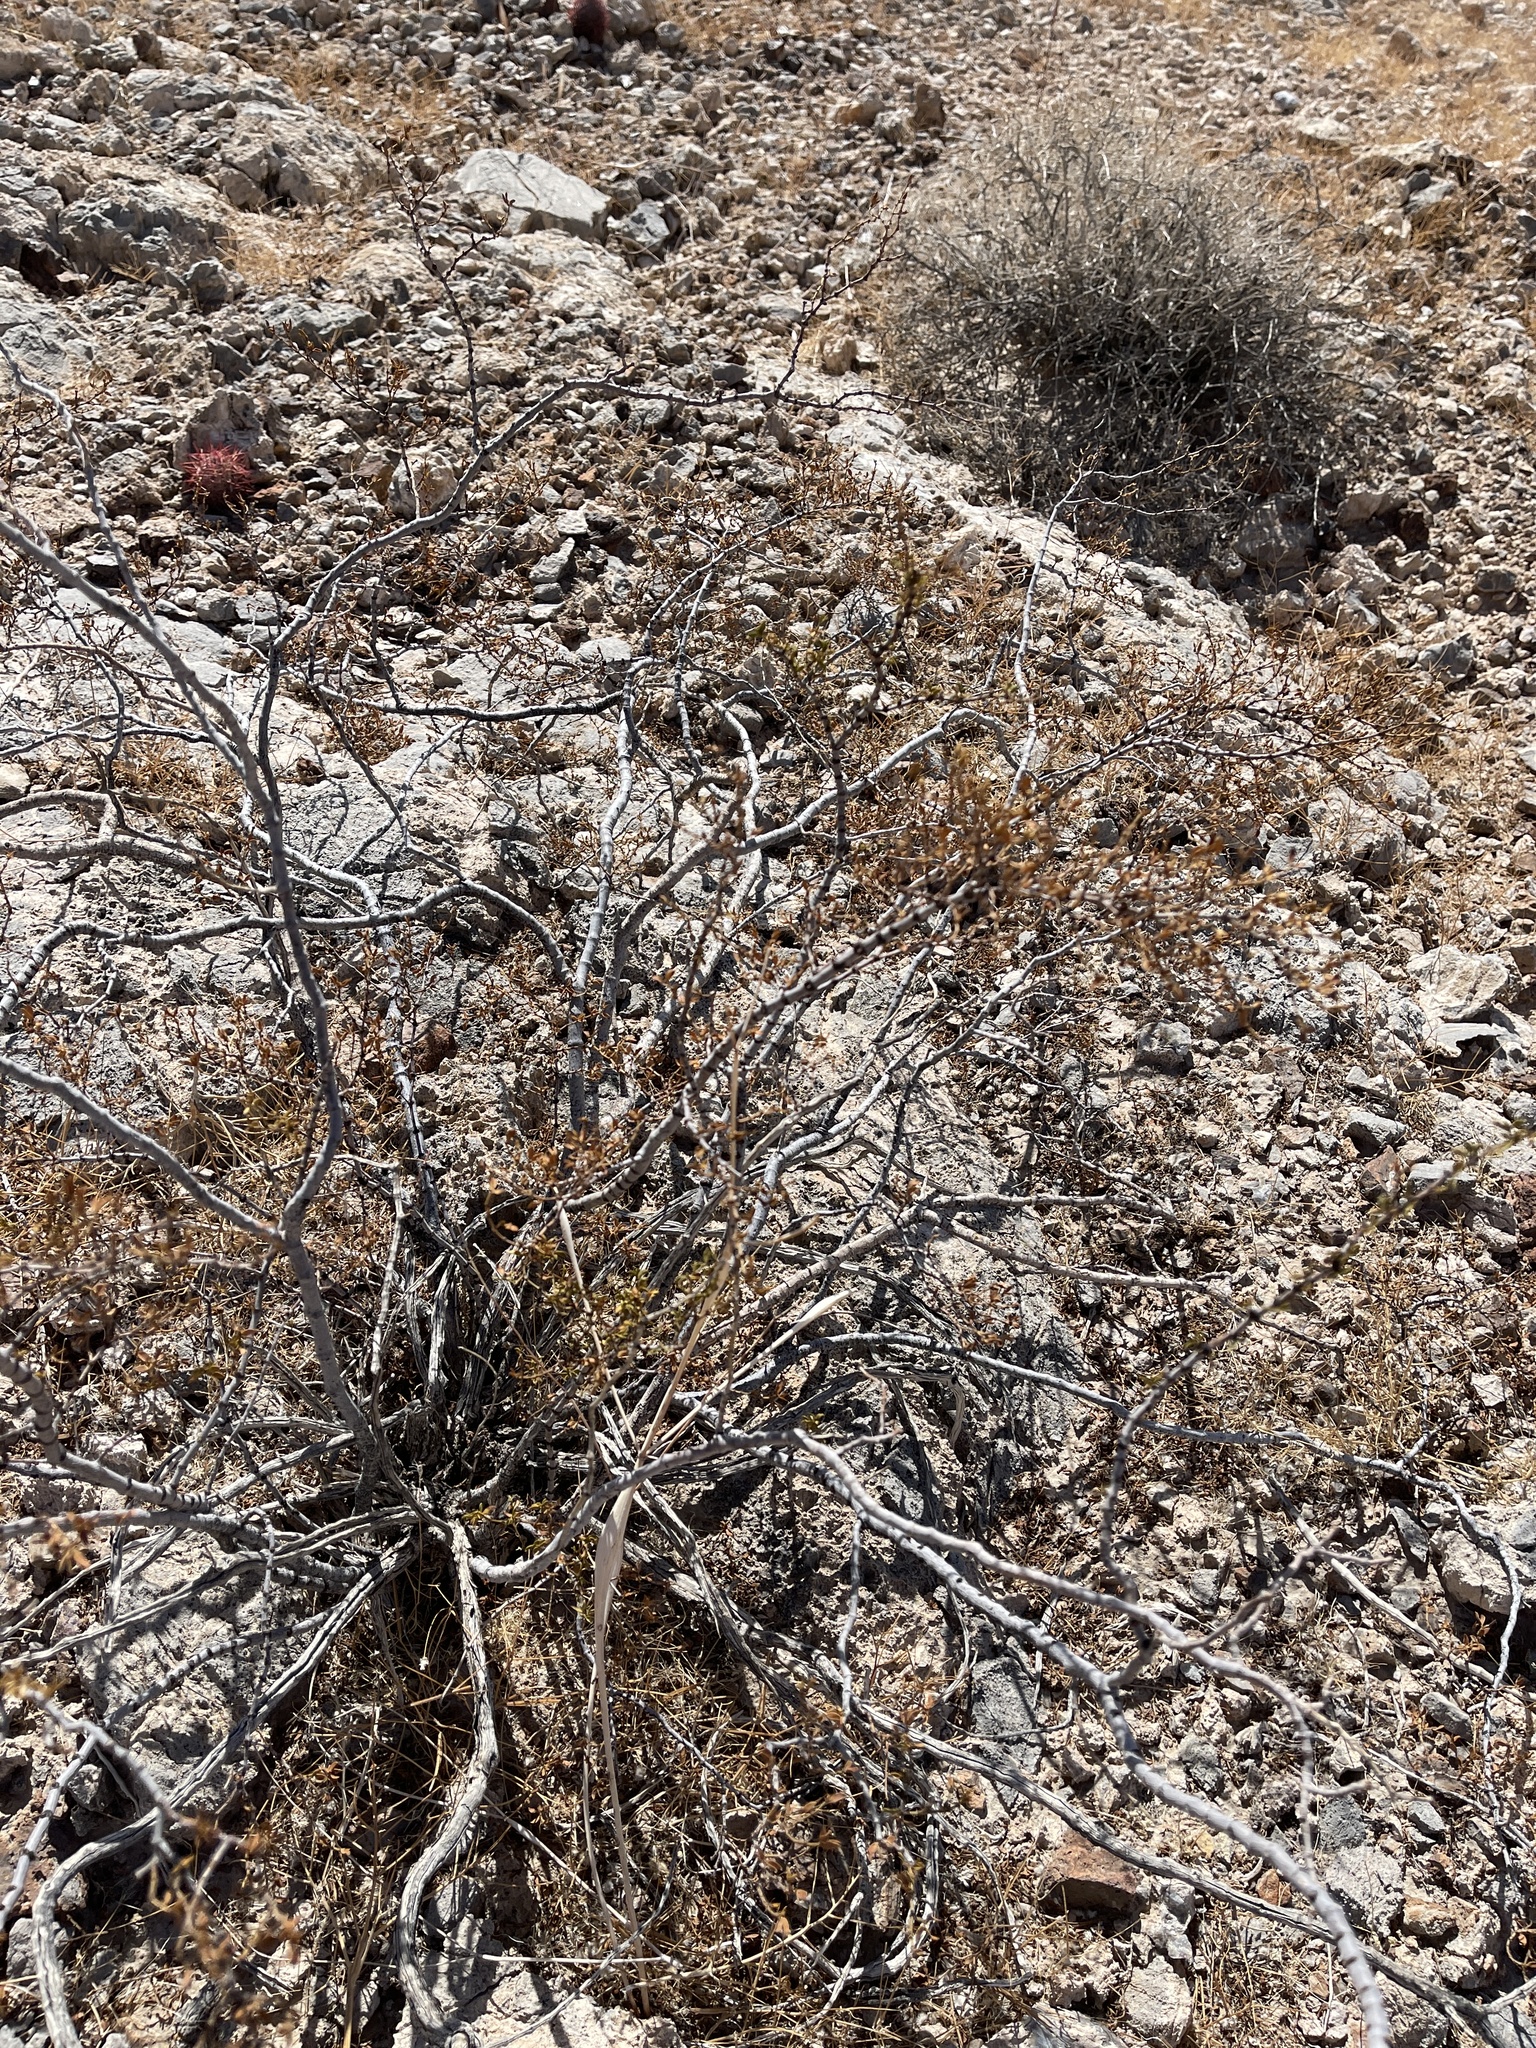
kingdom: Plantae
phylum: Tracheophyta
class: Magnoliopsida
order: Zygophyllales
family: Zygophyllaceae
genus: Larrea
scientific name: Larrea tridentata
